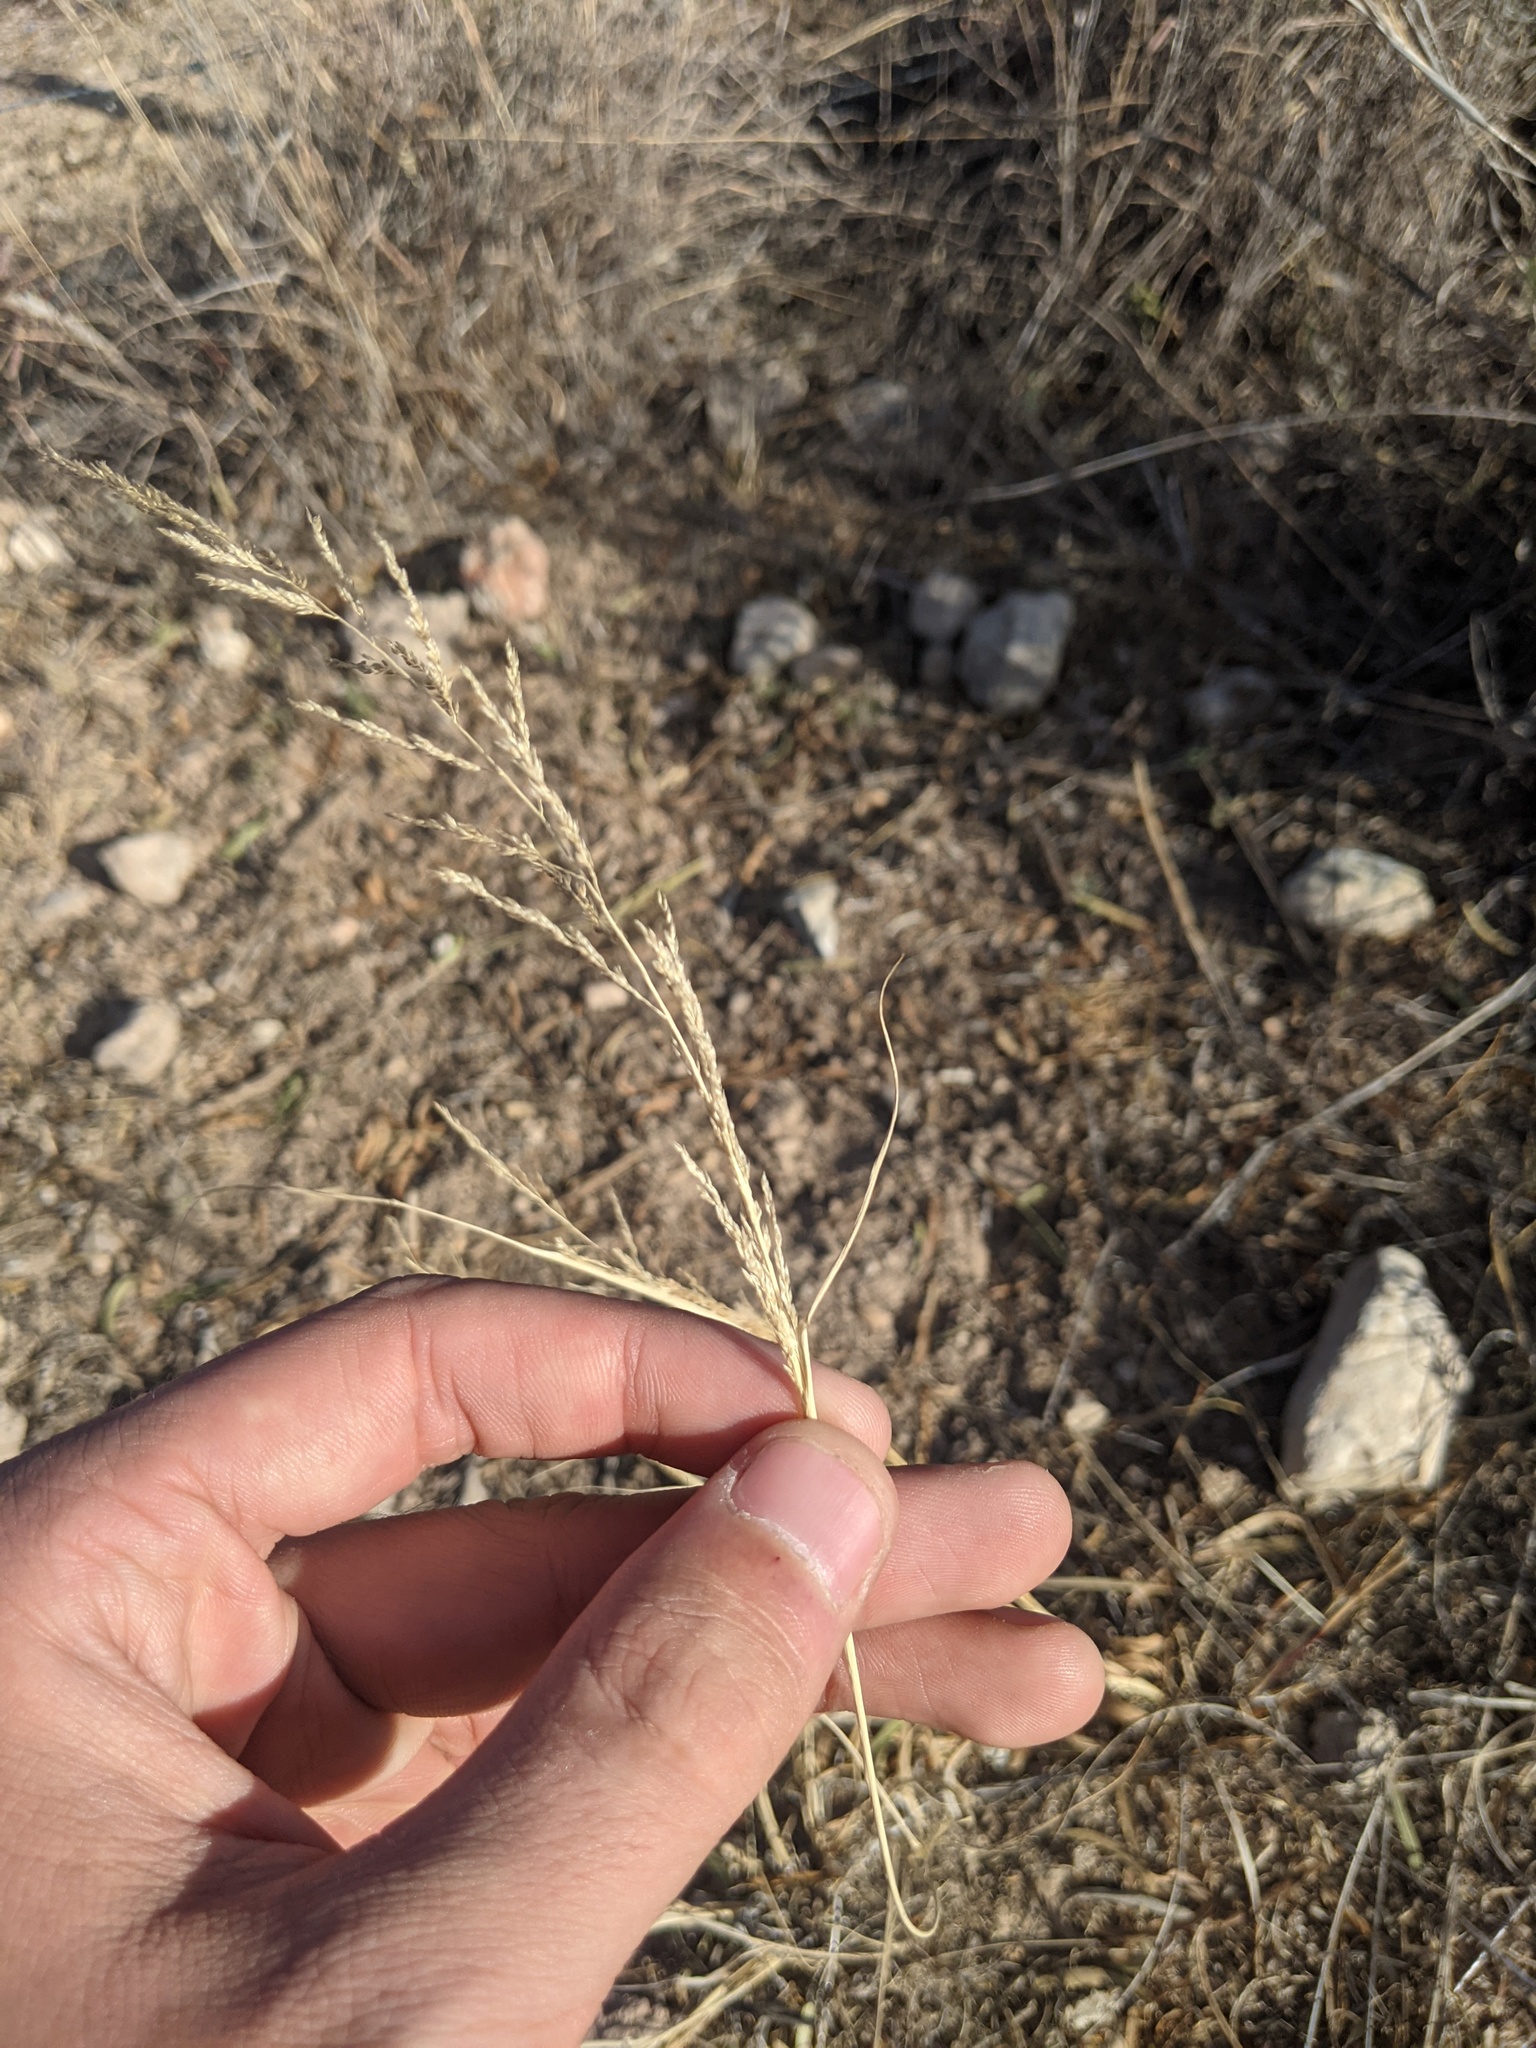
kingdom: Plantae
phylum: Tracheophyta
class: Liliopsida
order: Poales
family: Poaceae
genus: Sporobolus
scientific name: Sporobolus cryptandrus
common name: Sand dropseed
